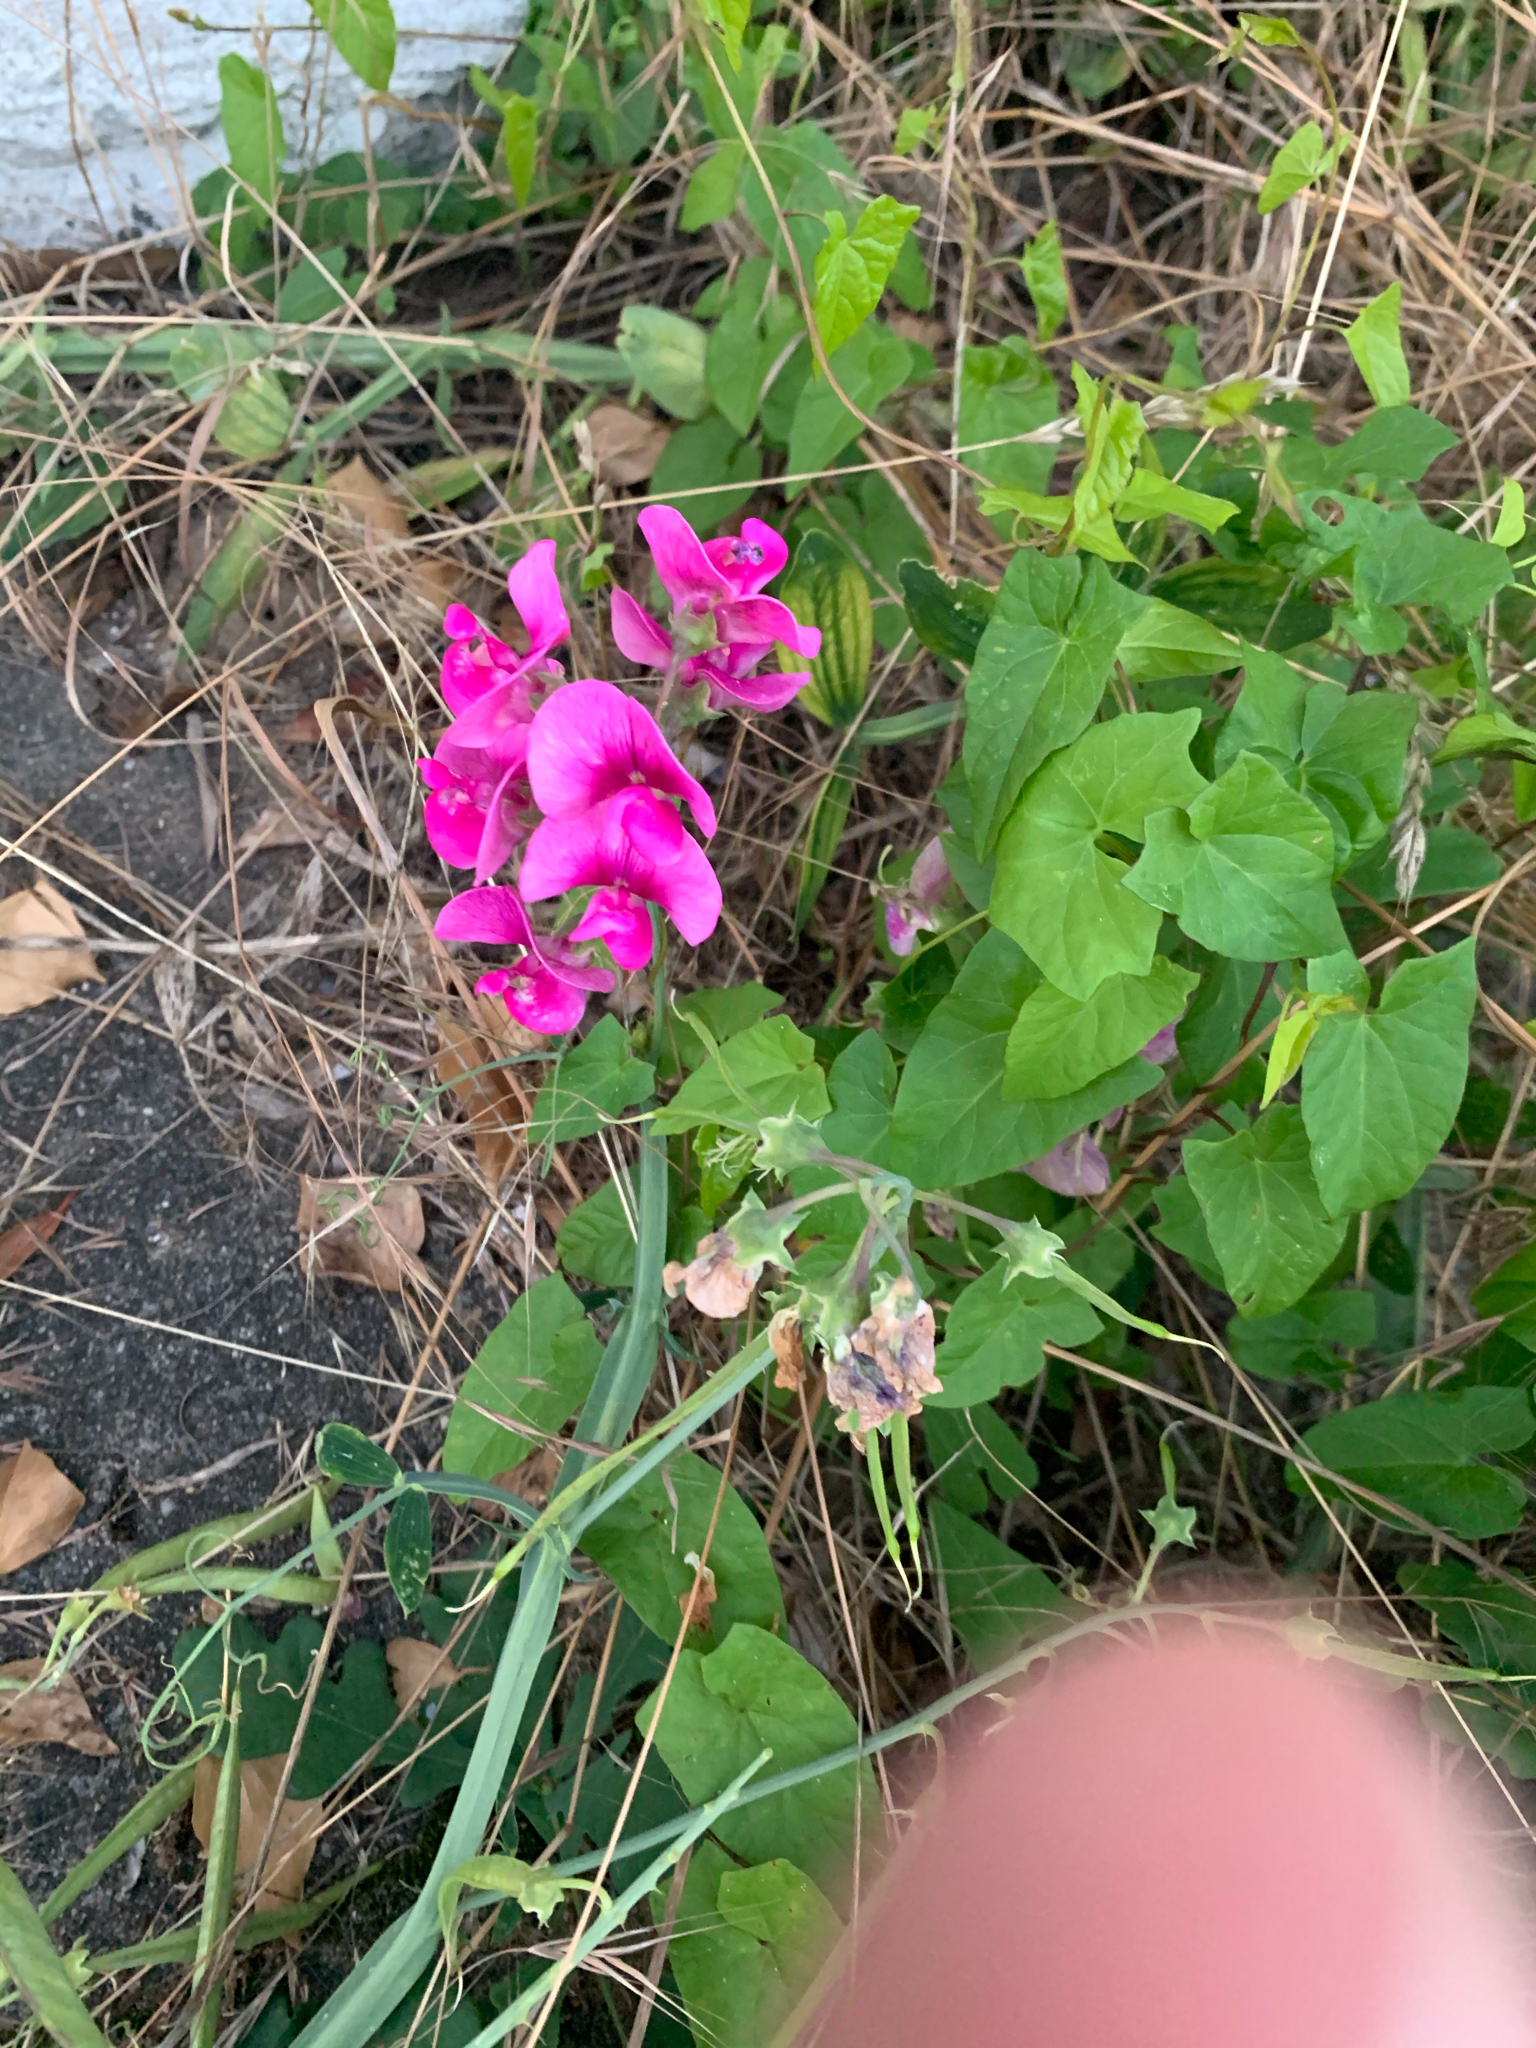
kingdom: Plantae
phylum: Tracheophyta
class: Magnoliopsida
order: Fabales
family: Fabaceae
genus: Lathyrus
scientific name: Lathyrus latifolius
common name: Perennial pea
